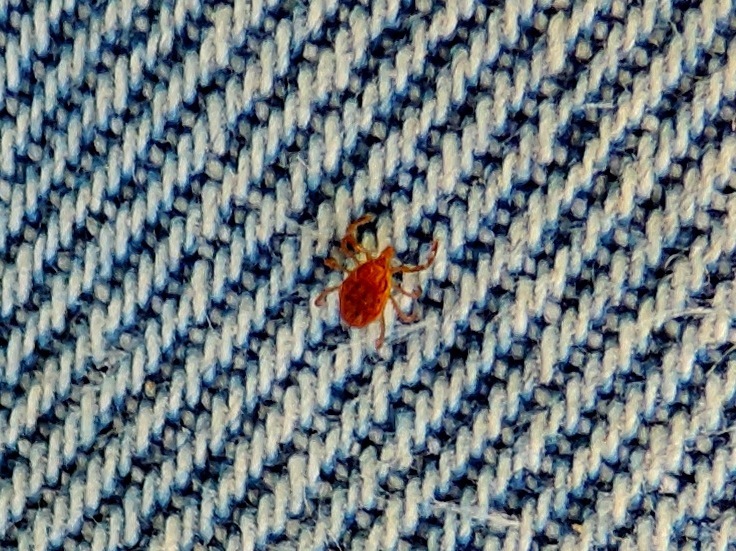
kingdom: Animalia
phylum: Arthropoda
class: Arachnida
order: Ixodida
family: Ixodidae
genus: Amblyomma
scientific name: Amblyomma
